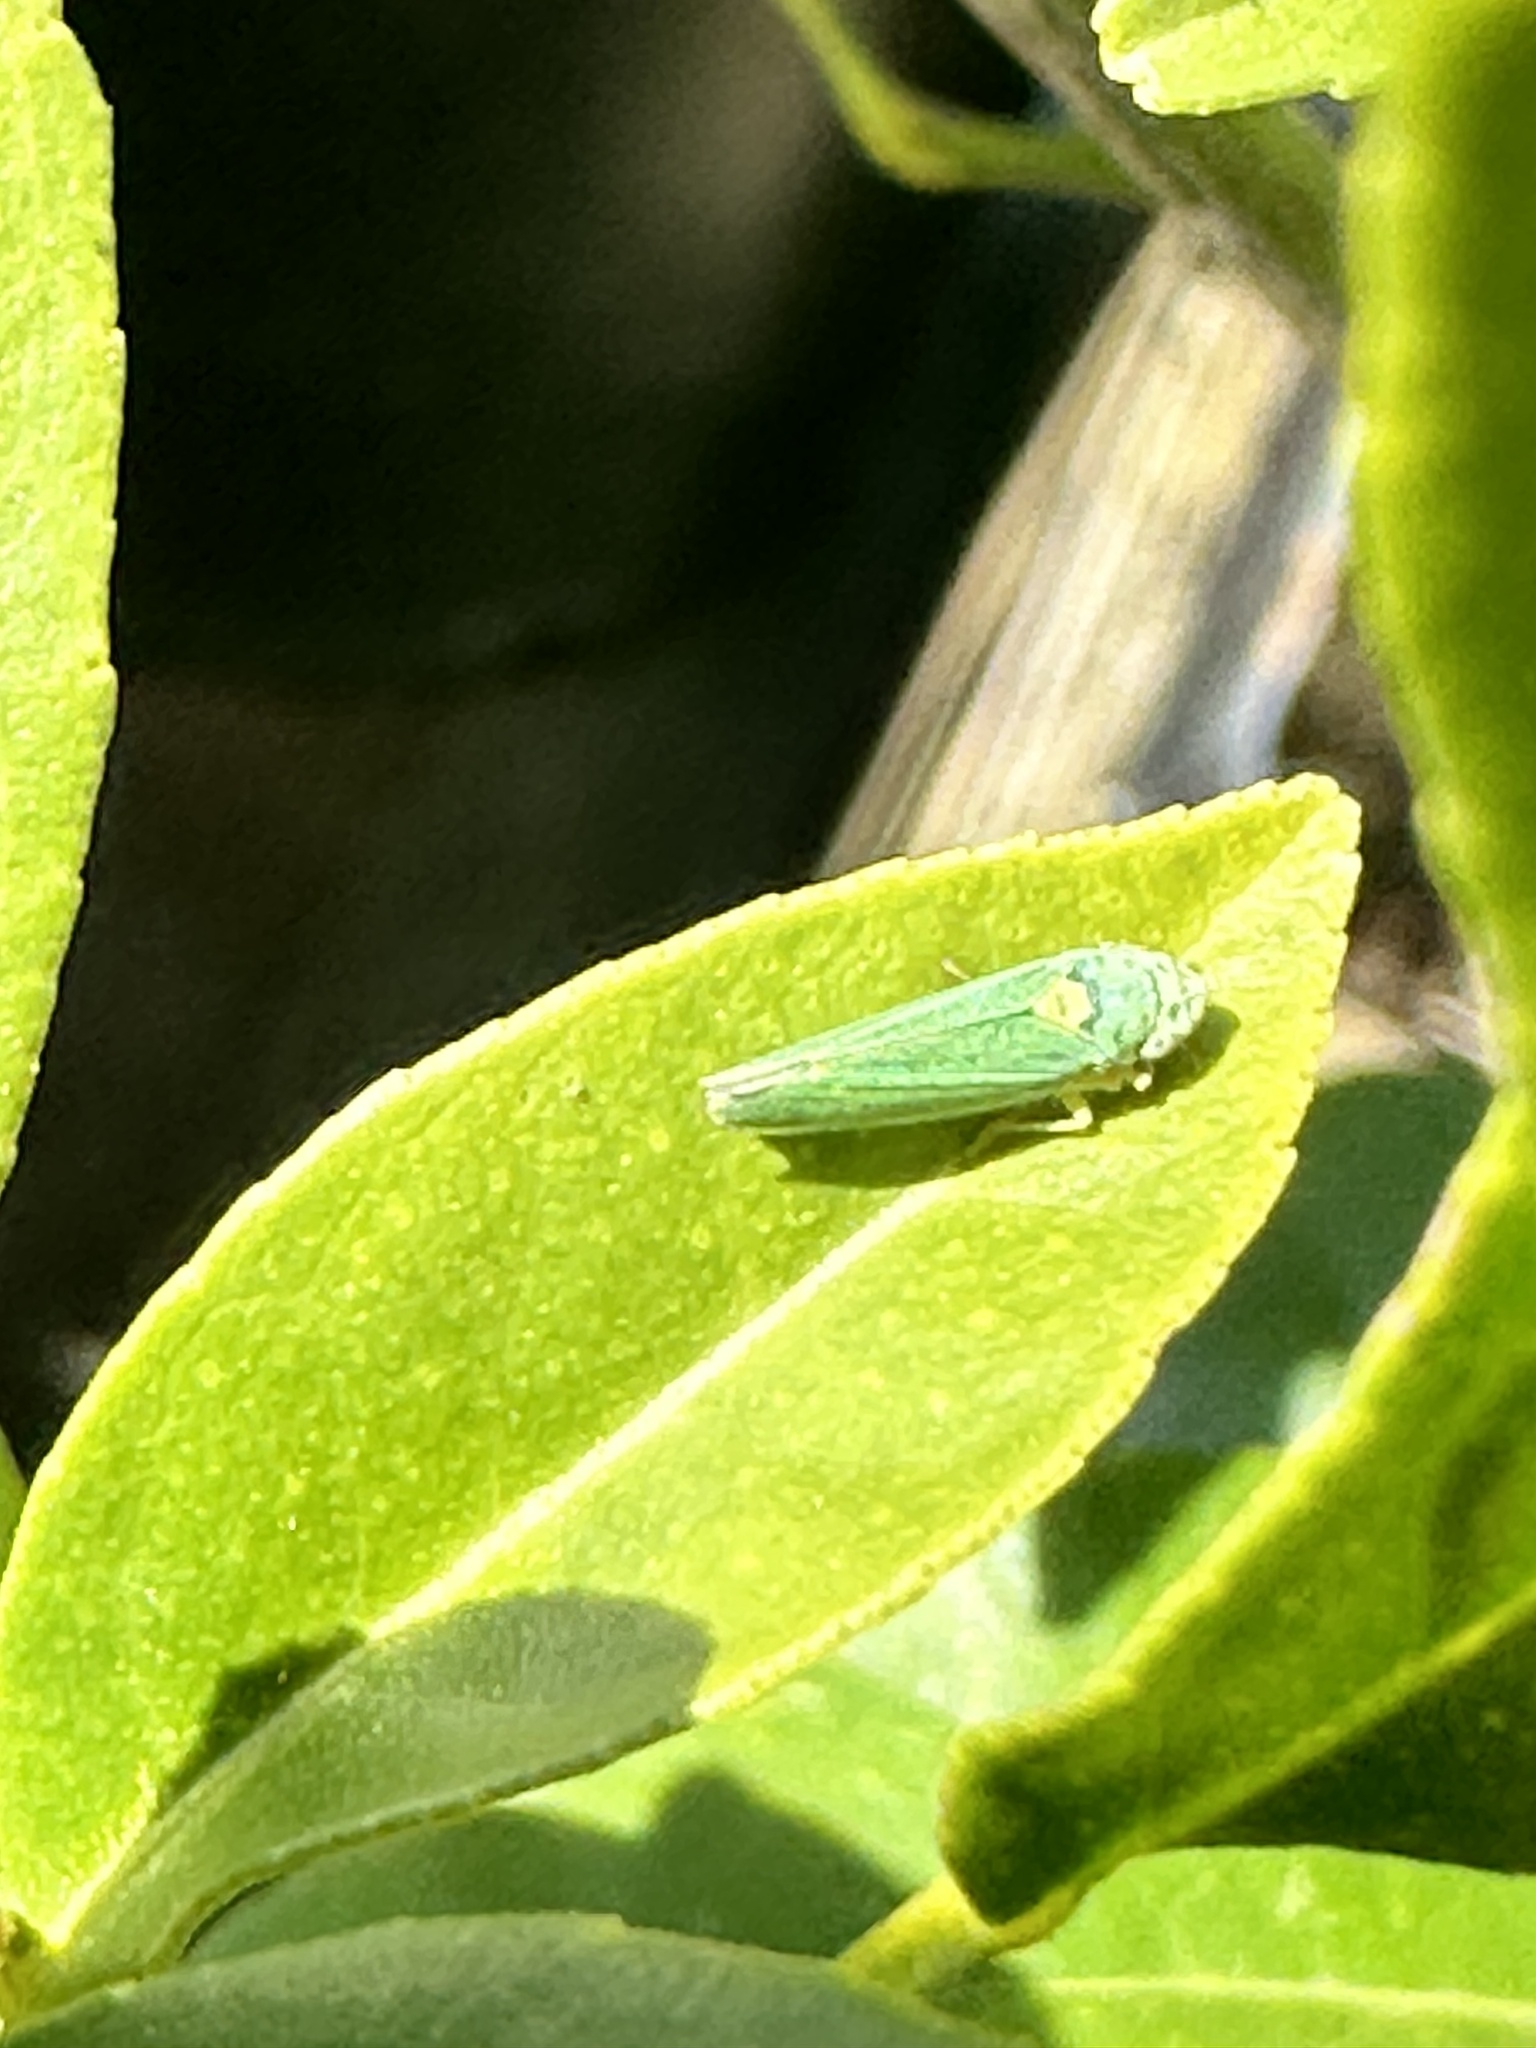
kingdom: Animalia
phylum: Arthropoda
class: Insecta
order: Hemiptera
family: Cicadellidae
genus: Graphocephala
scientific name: Graphocephala atropunctata
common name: Blue-green sharpshooter
